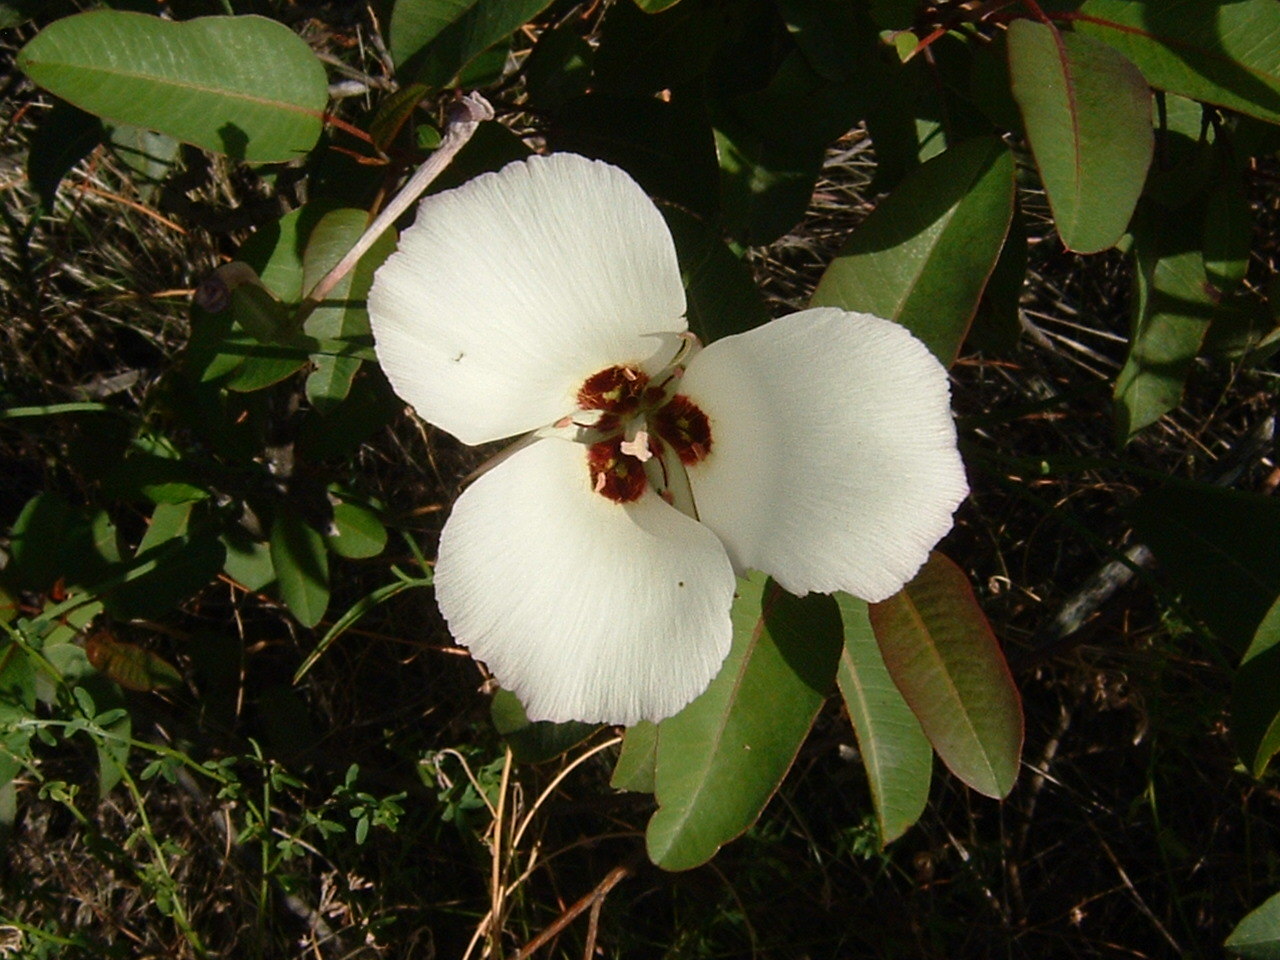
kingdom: Plantae
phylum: Tracheophyta
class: Liliopsida
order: Liliales
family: Liliaceae
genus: Calochortus
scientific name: Calochortus catalinae
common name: Catalina mariposa-lily
